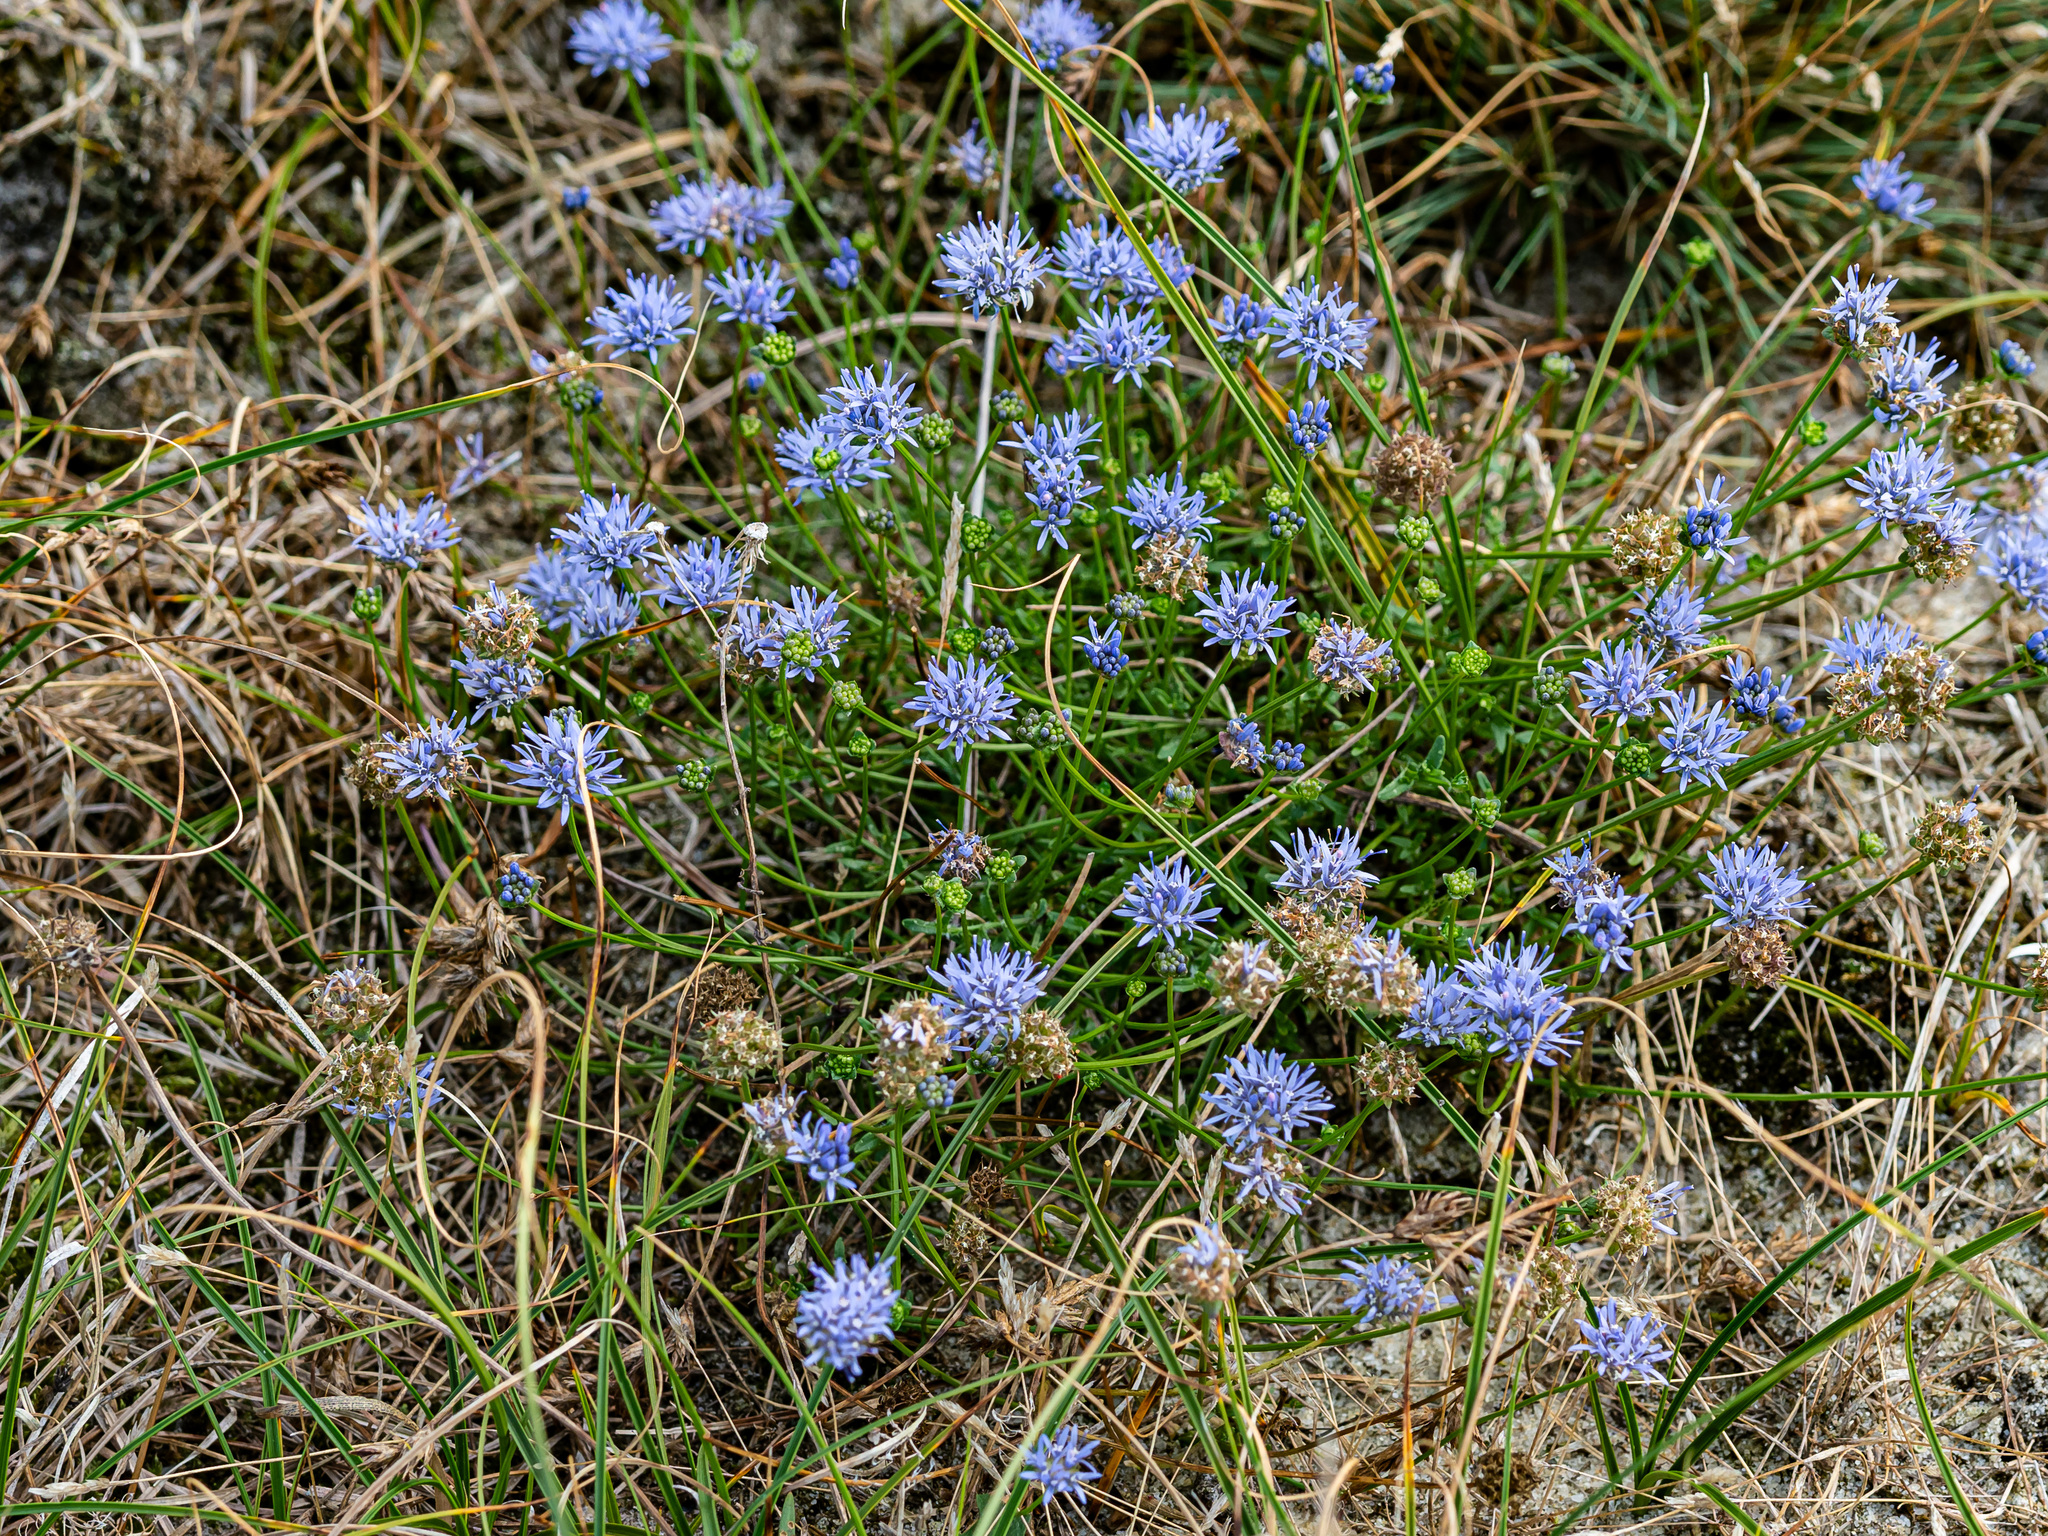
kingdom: Plantae
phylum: Tracheophyta
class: Magnoliopsida
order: Asterales
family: Campanulaceae
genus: Jasione
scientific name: Jasione montana
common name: Sheep's-bit
